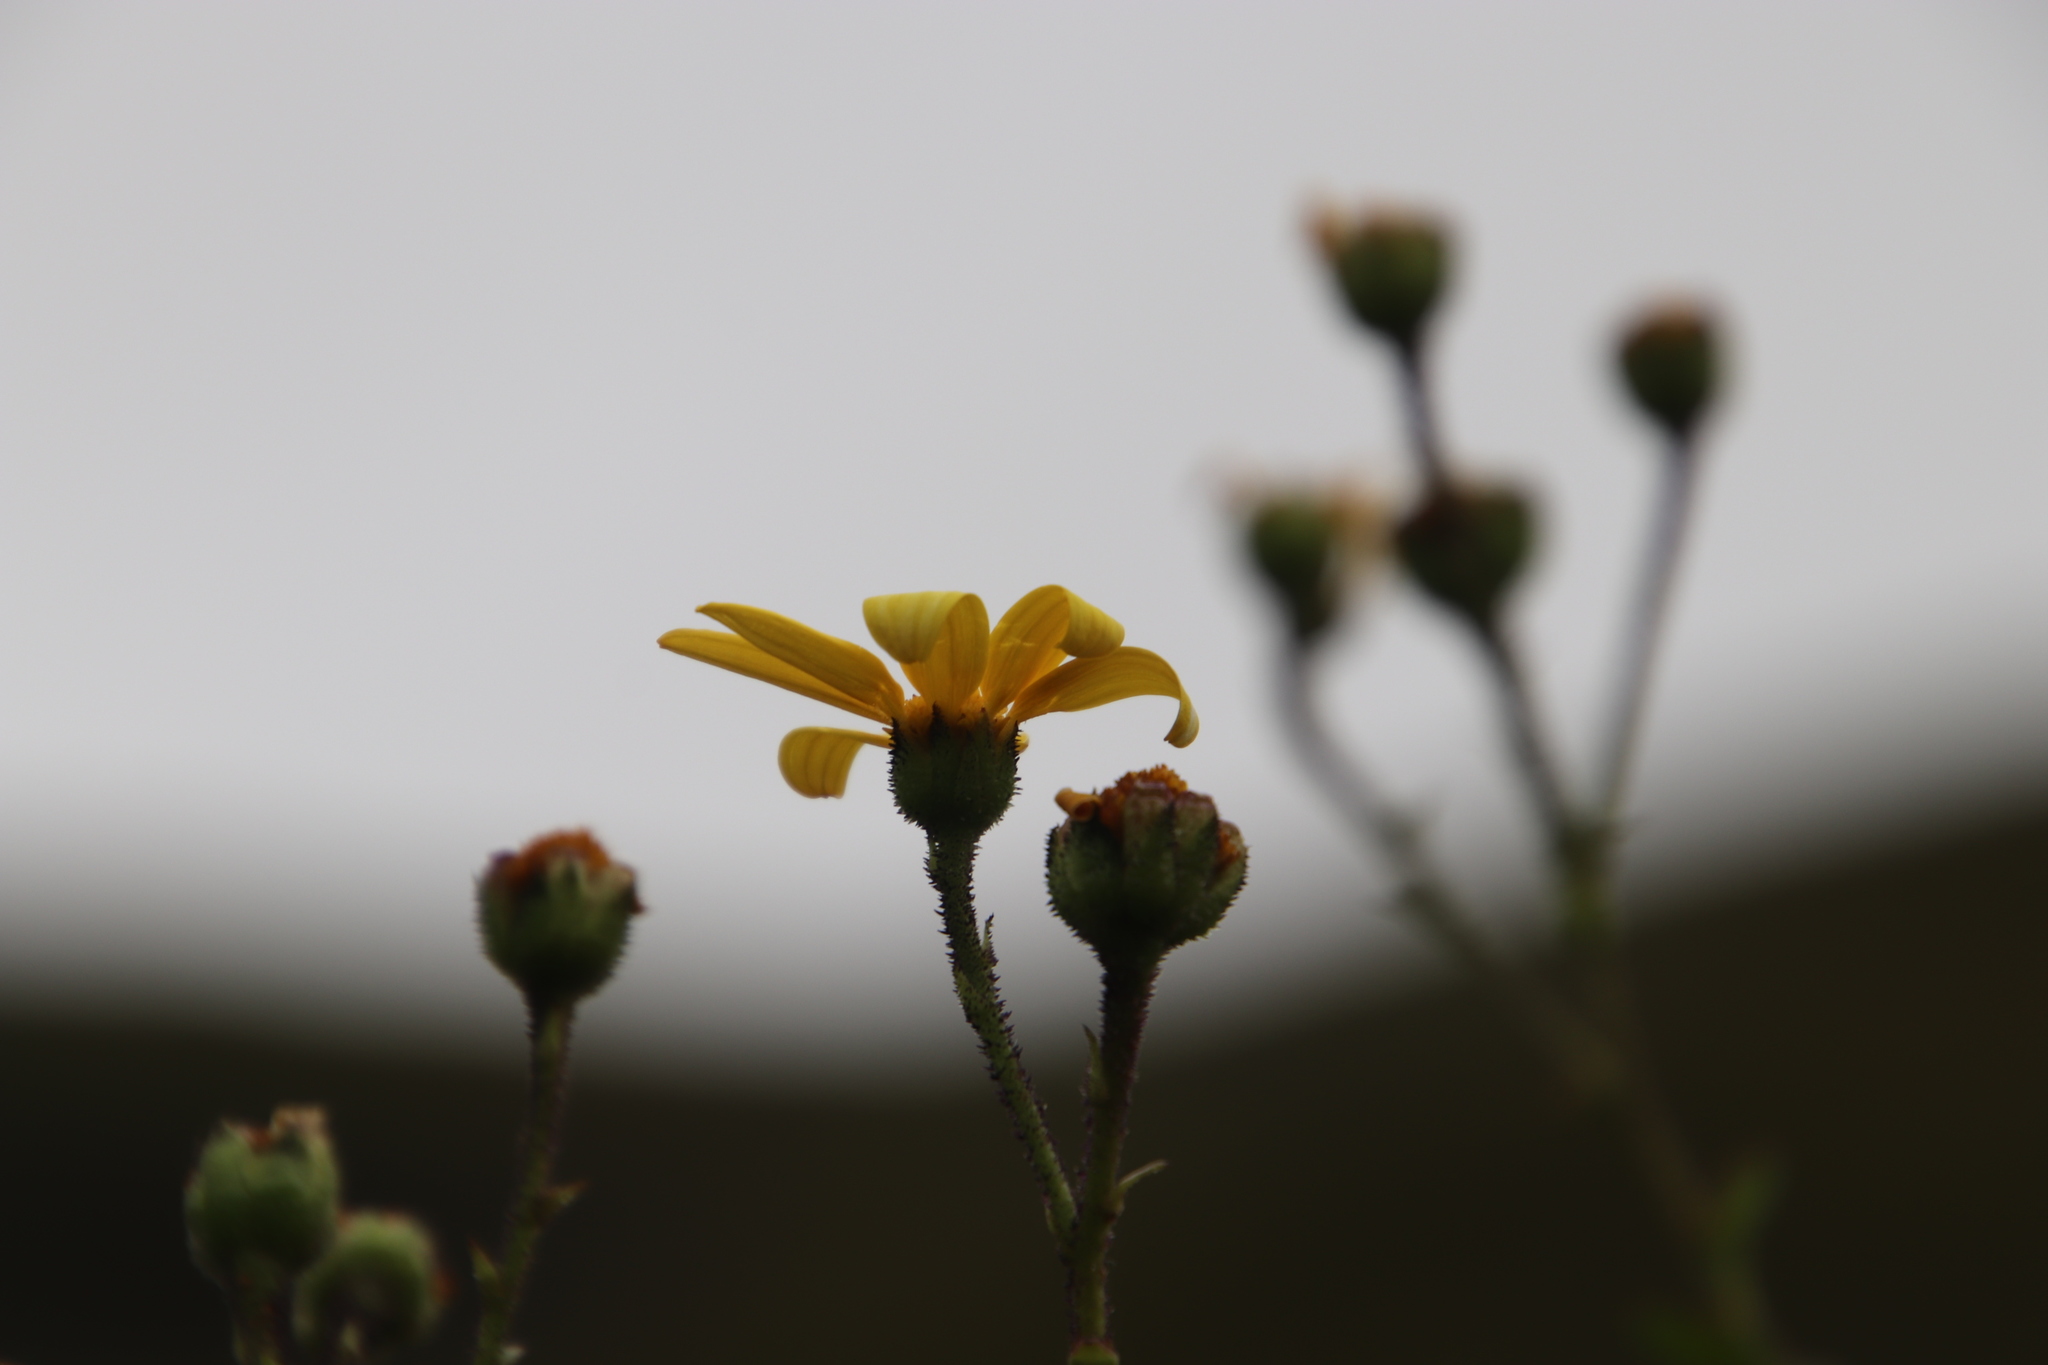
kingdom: Plantae
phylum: Tracheophyta
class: Magnoliopsida
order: Asterales
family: Asteraceae
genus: Osteospermum
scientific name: Osteospermum rotundifolium
